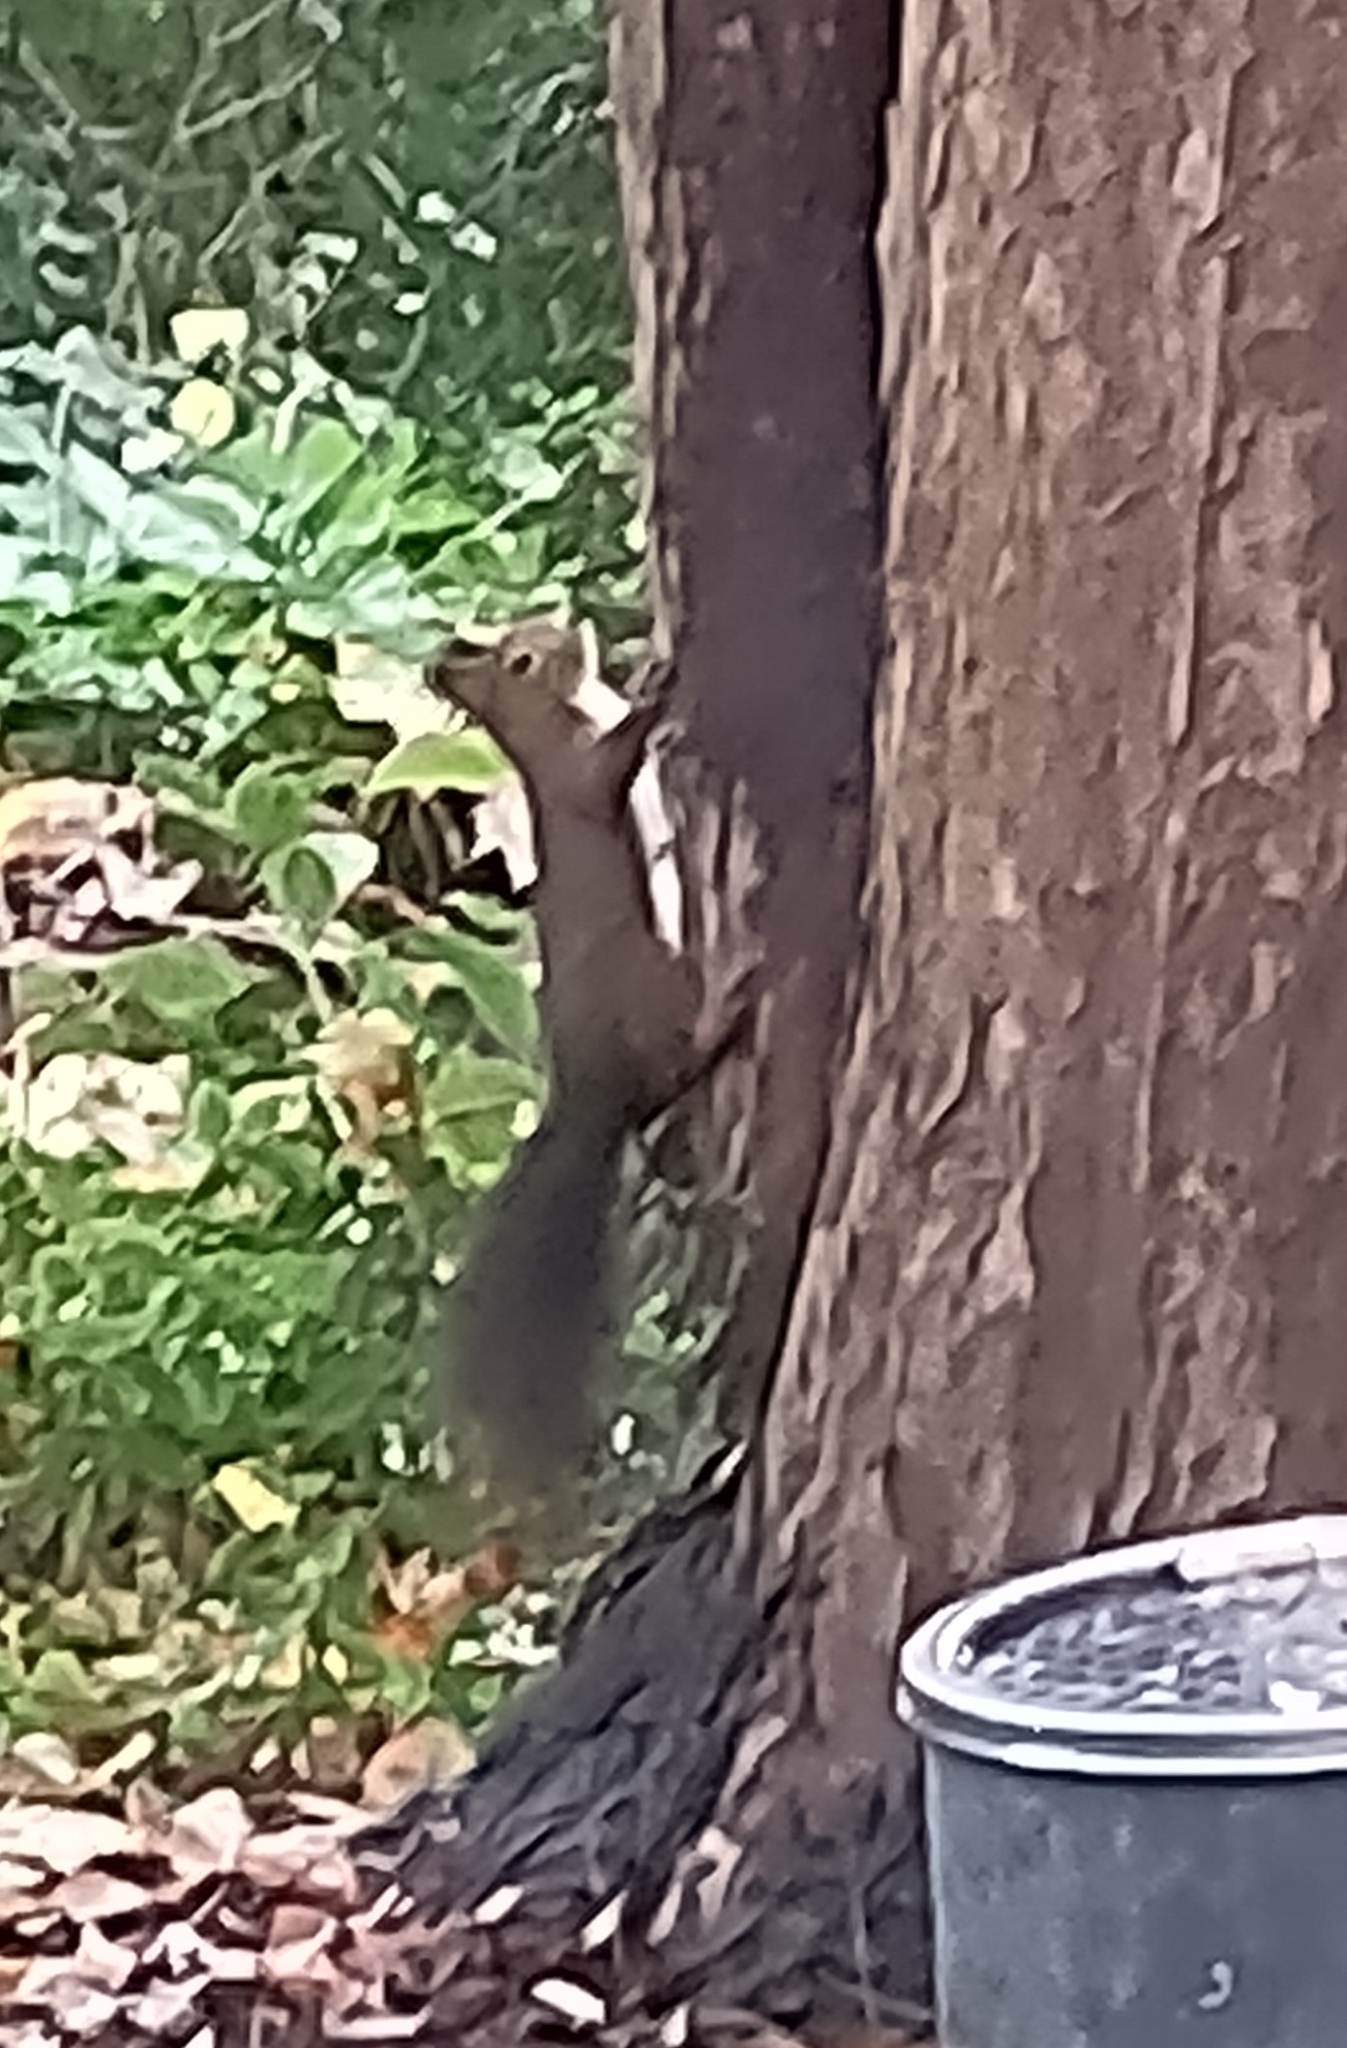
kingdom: Animalia
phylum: Chordata
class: Mammalia
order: Rodentia
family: Sciuridae
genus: Sciurus
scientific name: Sciurus vulgaris
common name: Eurasian red squirrel
